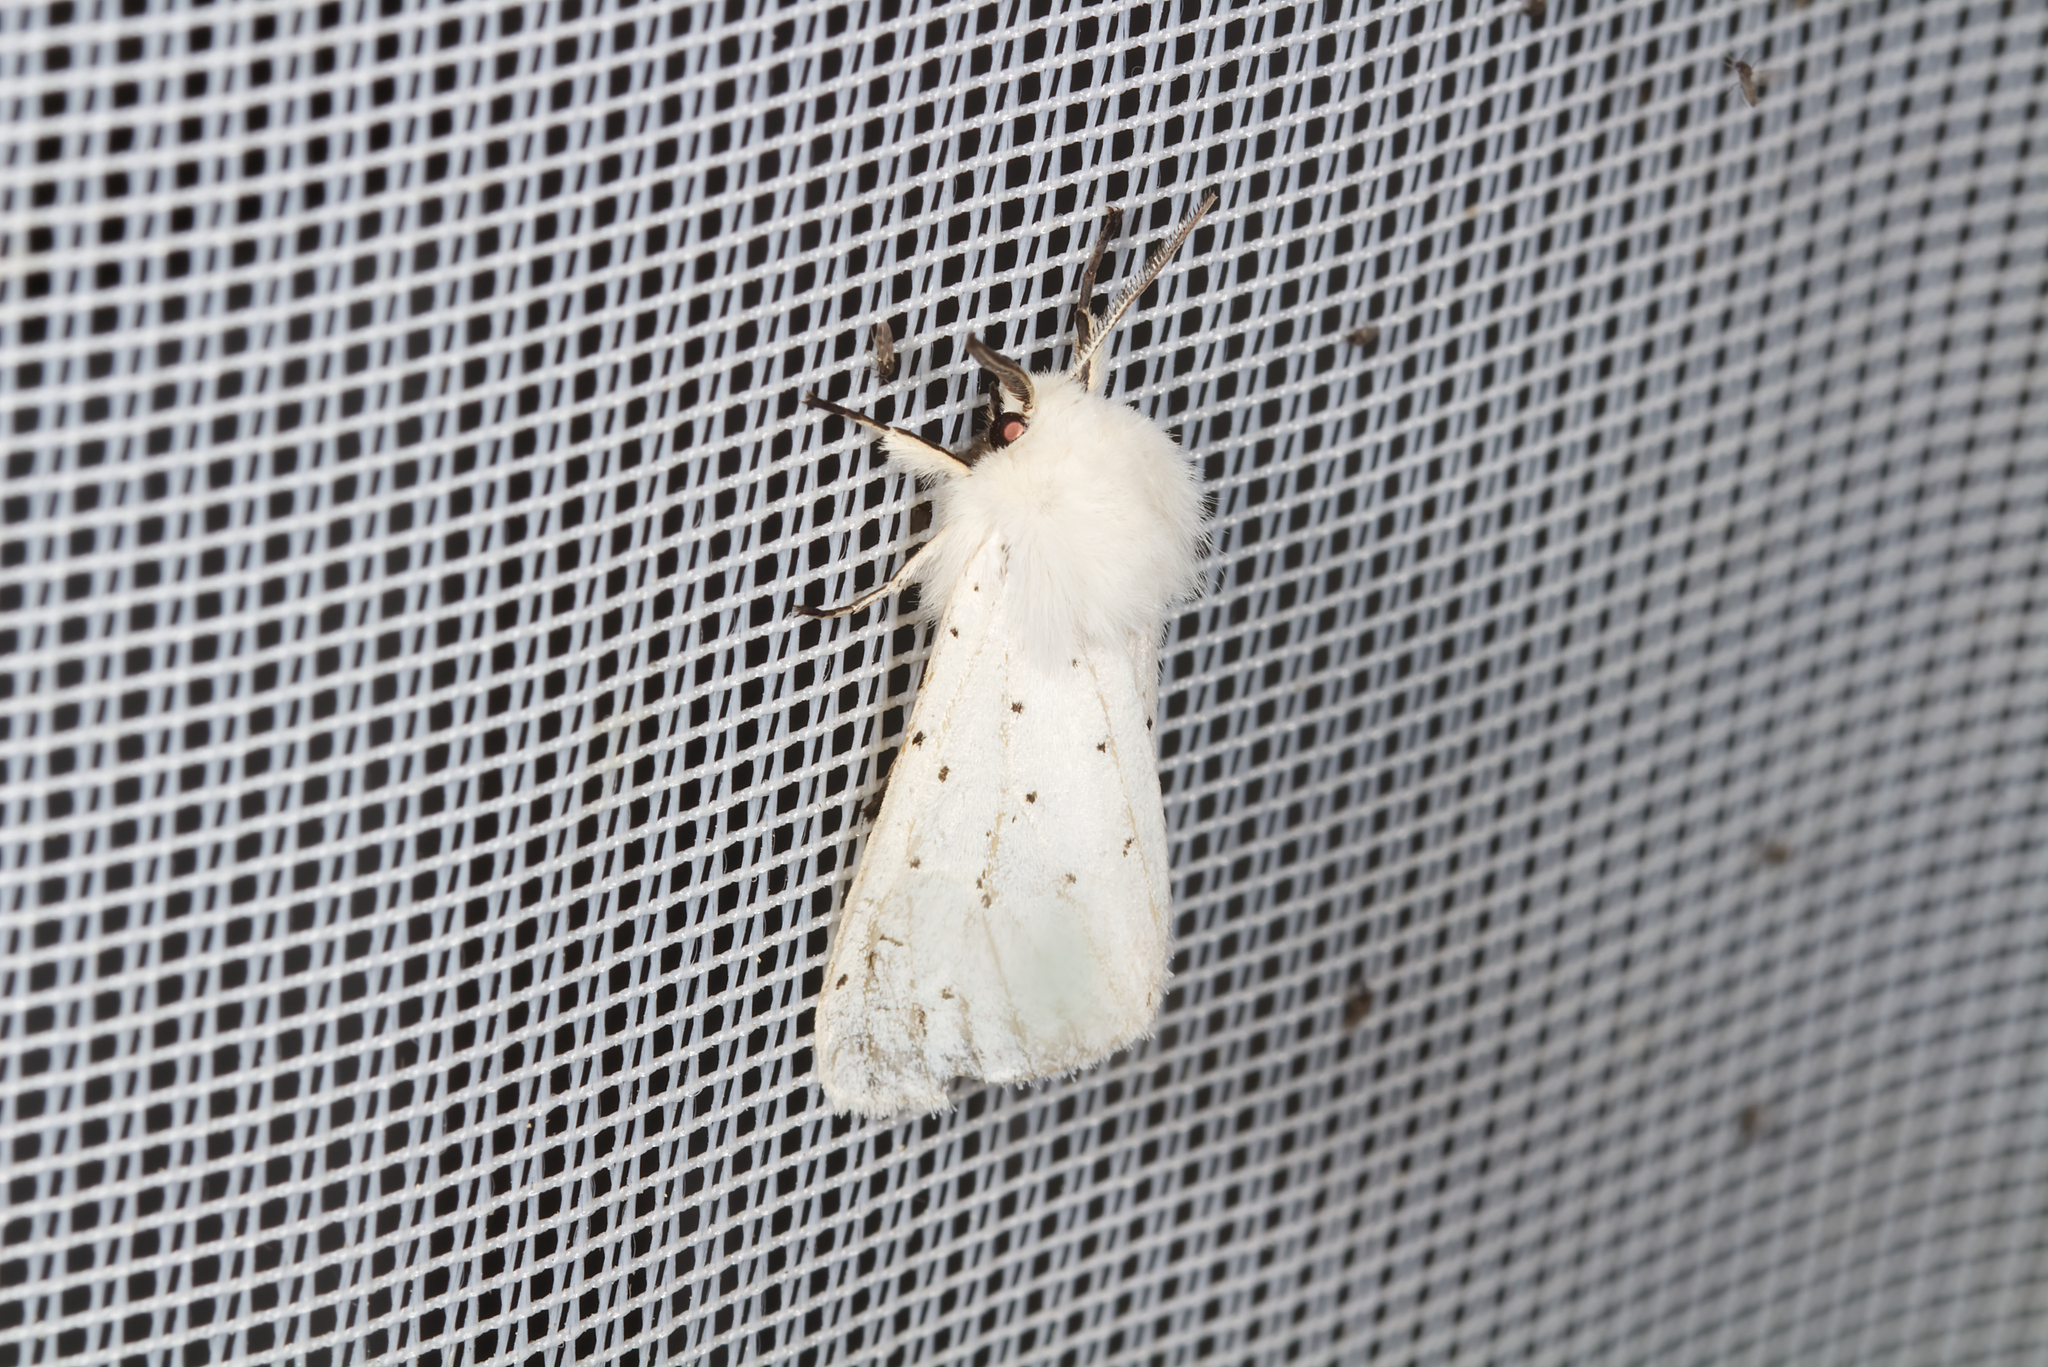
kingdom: Animalia
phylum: Arthropoda
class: Insecta
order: Lepidoptera
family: Erebidae
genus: Spilosoma
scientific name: Spilosoma lubricipeda
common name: White ermine
